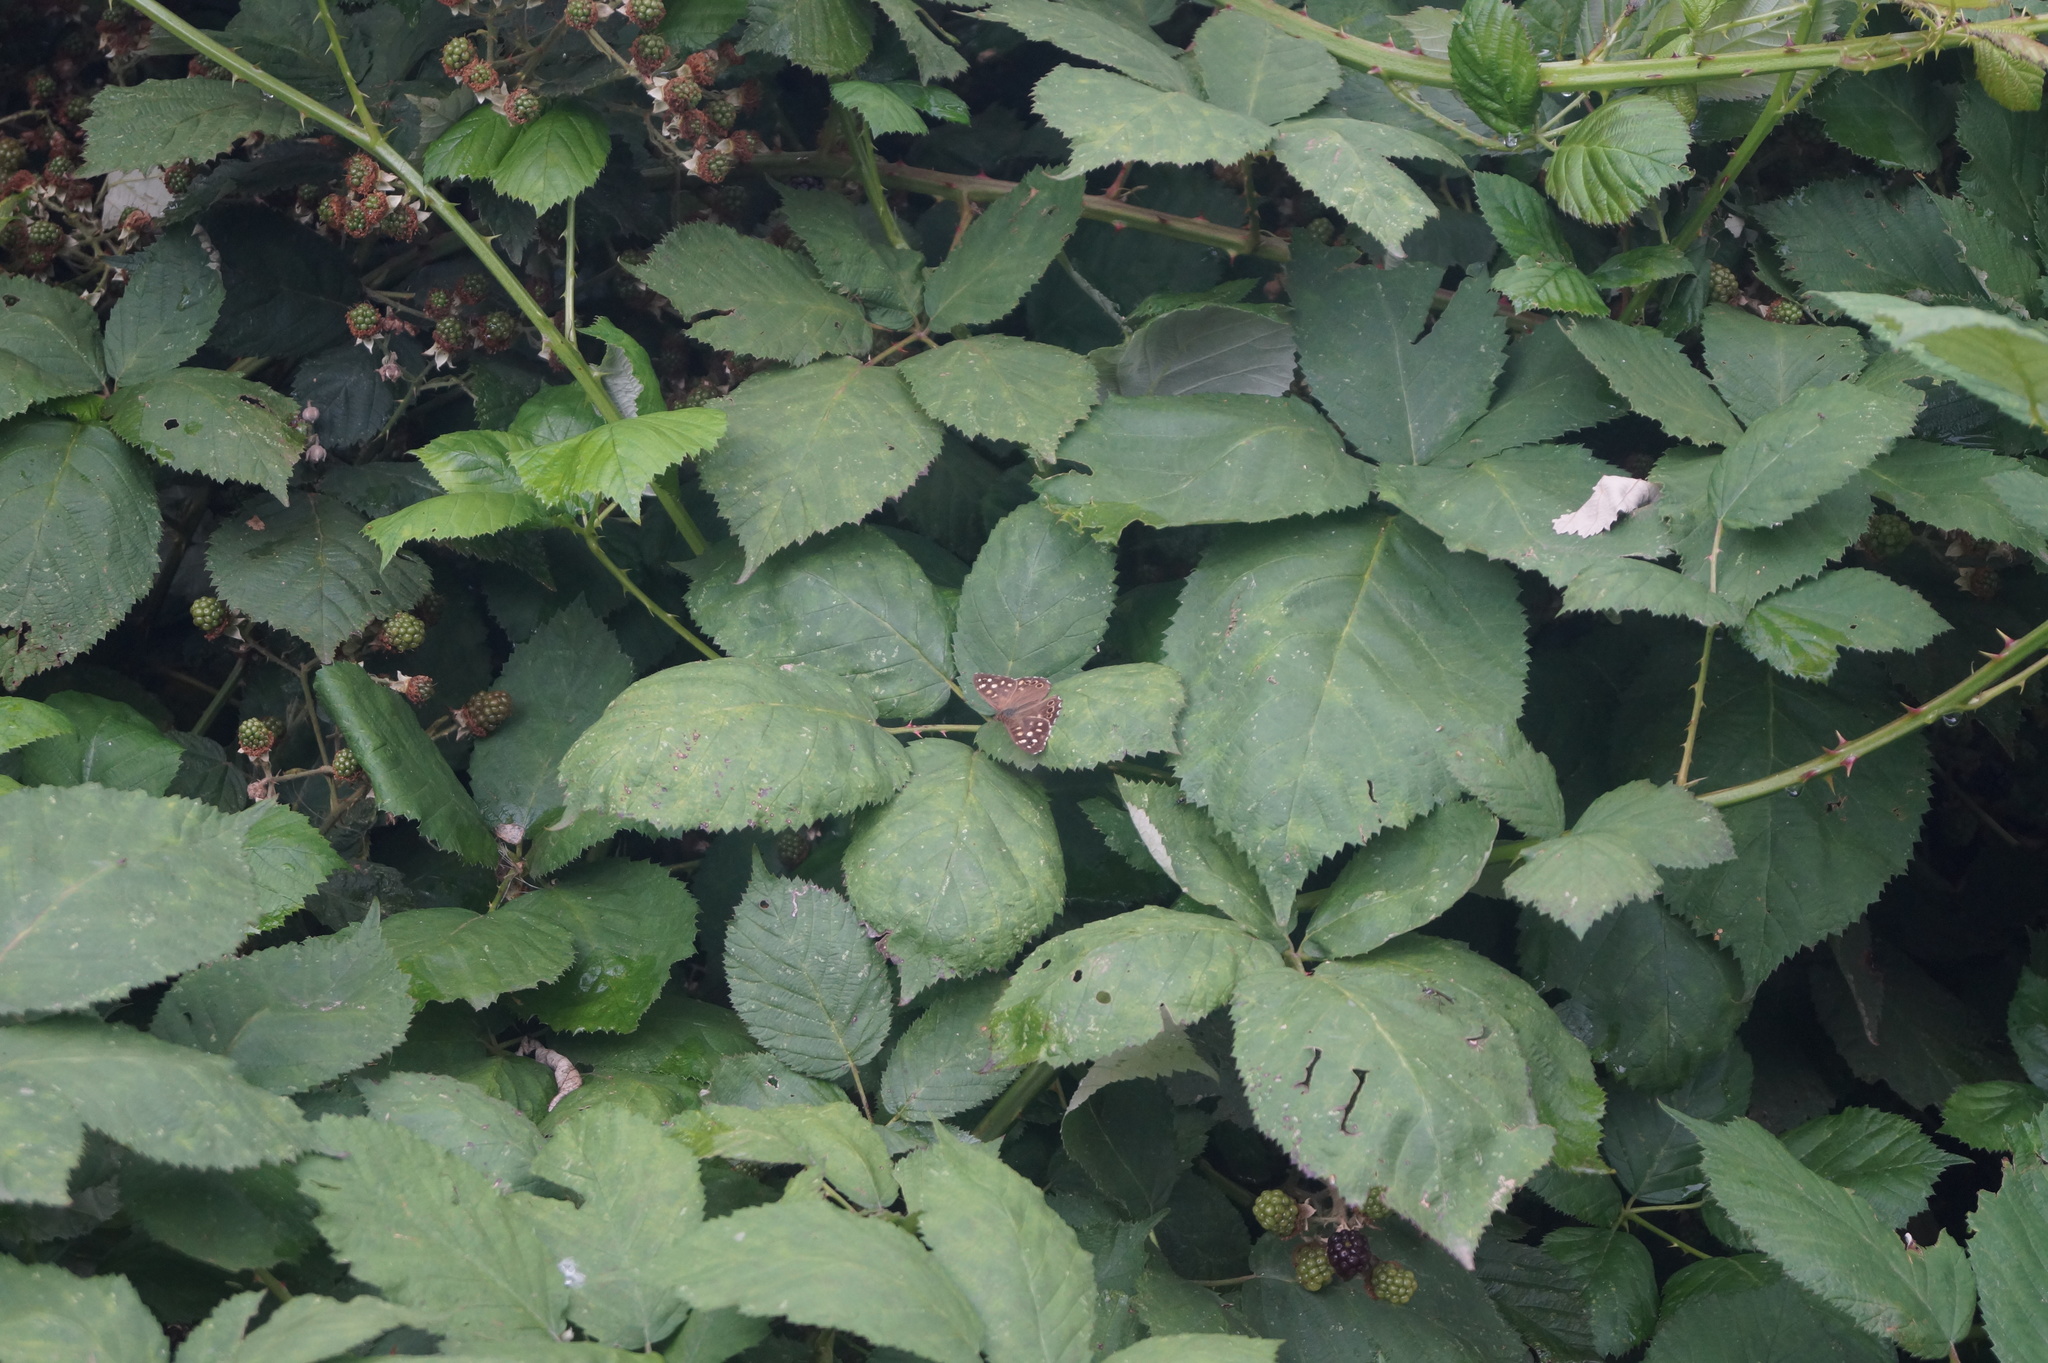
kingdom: Animalia
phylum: Arthropoda
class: Insecta
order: Lepidoptera
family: Nymphalidae
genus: Pararge
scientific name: Pararge aegeria
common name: Speckled wood
